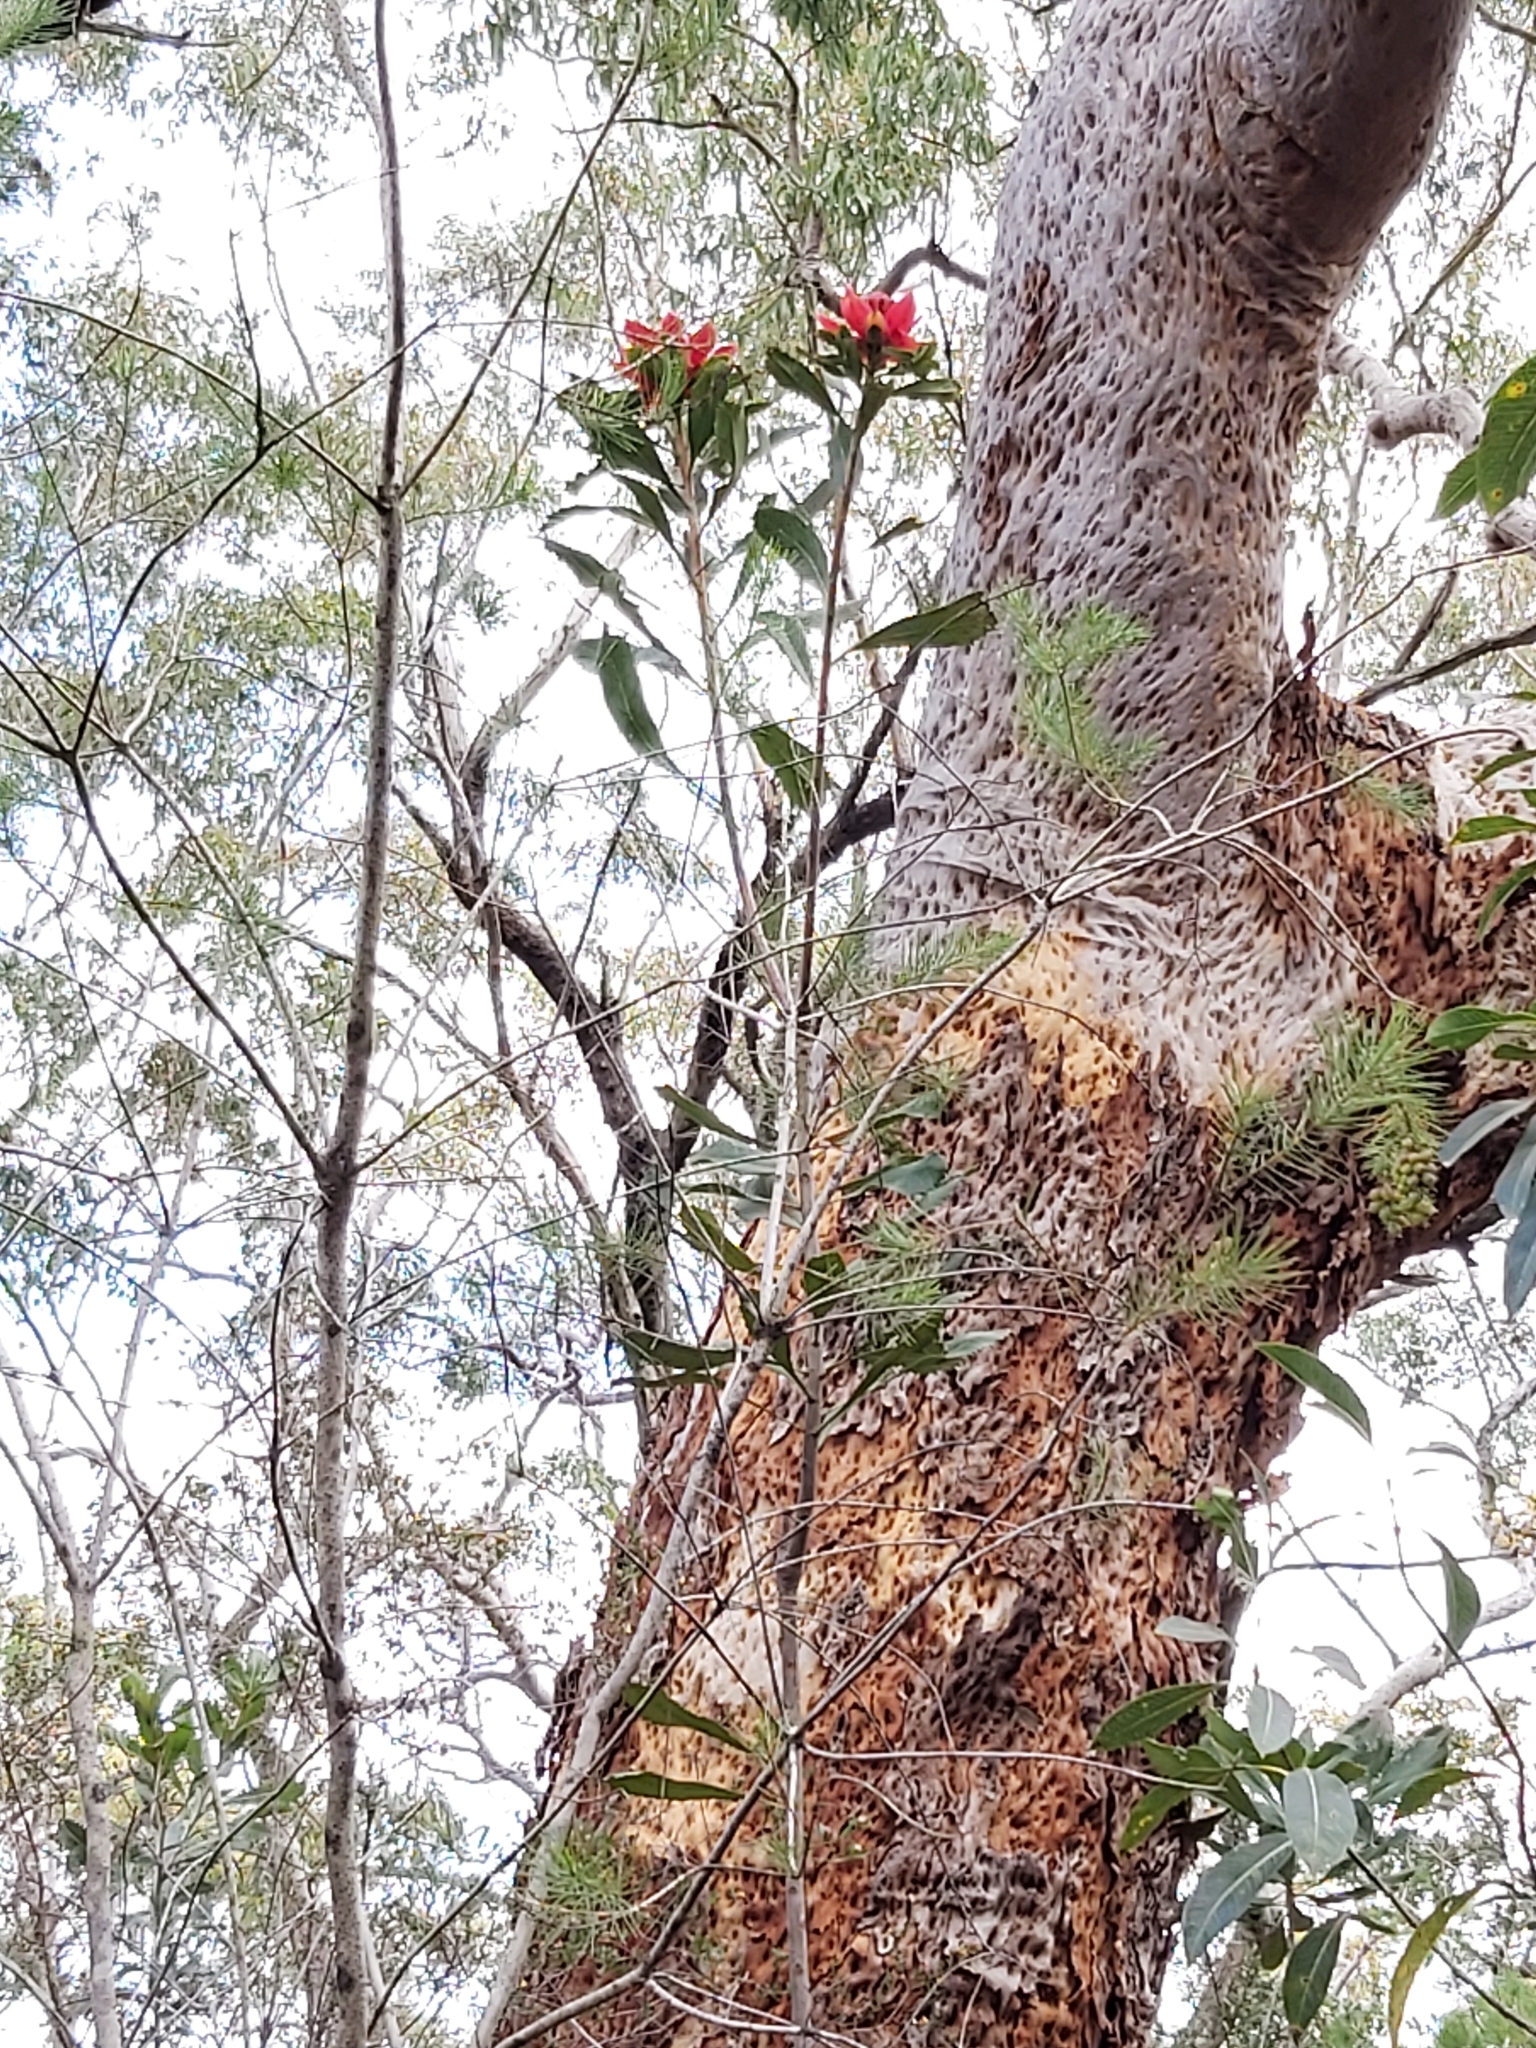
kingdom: Plantae
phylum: Tracheophyta
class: Magnoliopsida
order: Proteales
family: Proteaceae
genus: Telopea
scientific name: Telopea speciosissima
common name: New south wales waratah
